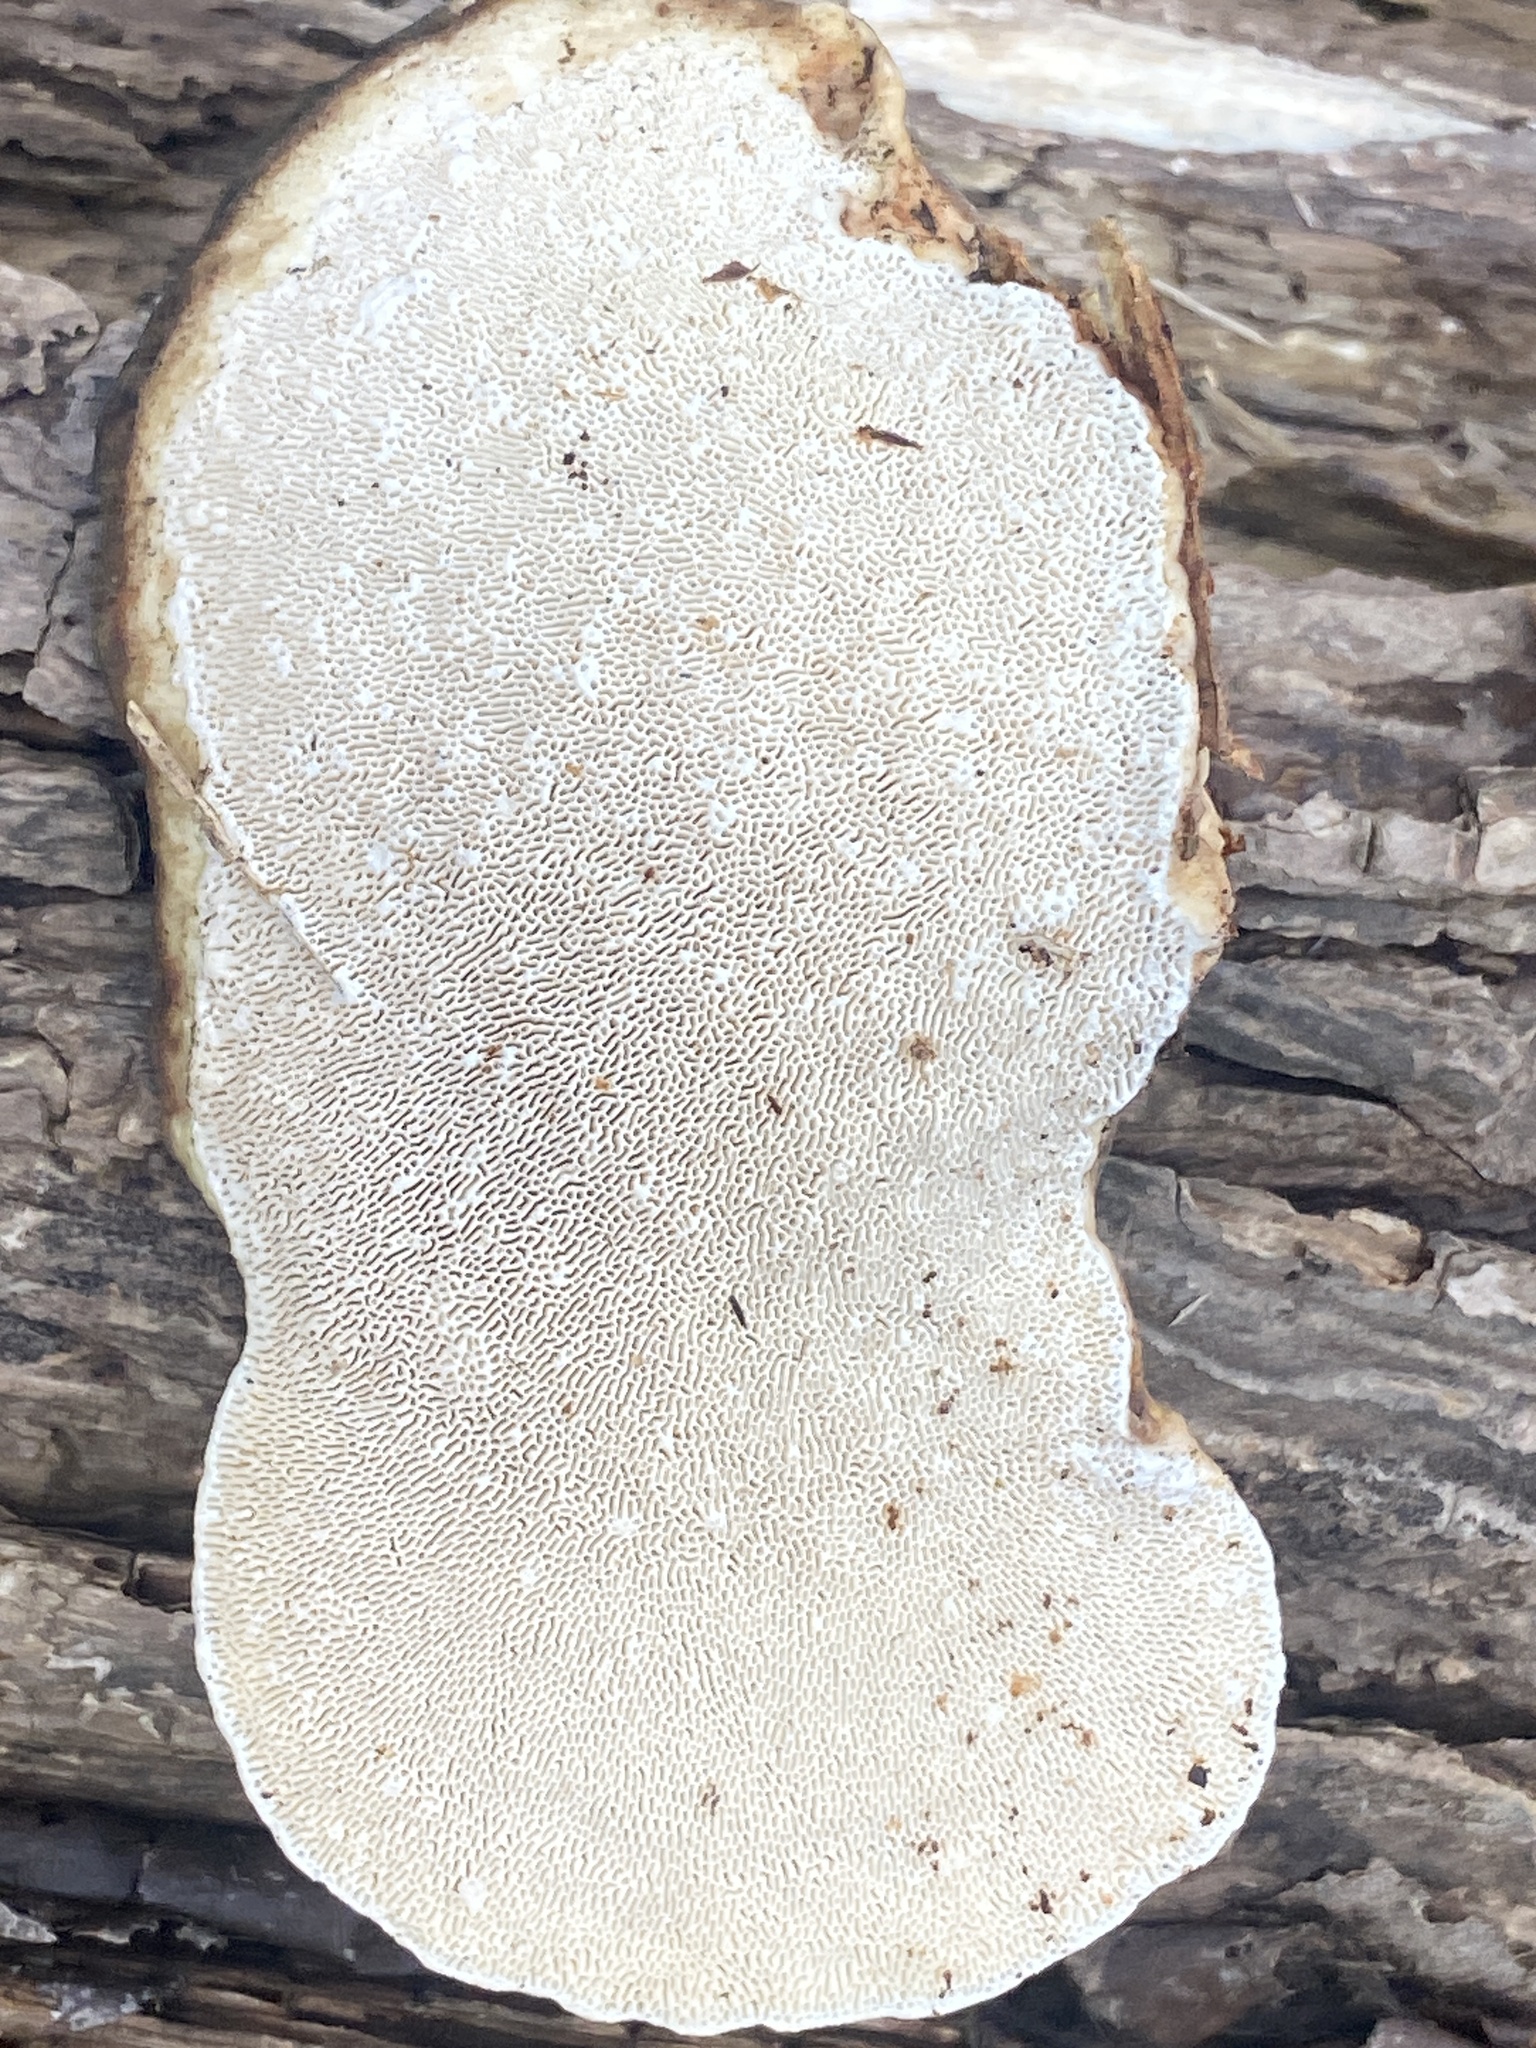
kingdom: Fungi
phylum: Basidiomycota
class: Agaricomycetes
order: Polyporales
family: Polyporaceae
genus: Trametes
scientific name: Trametes gibbosa
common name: Lumpy bracket
